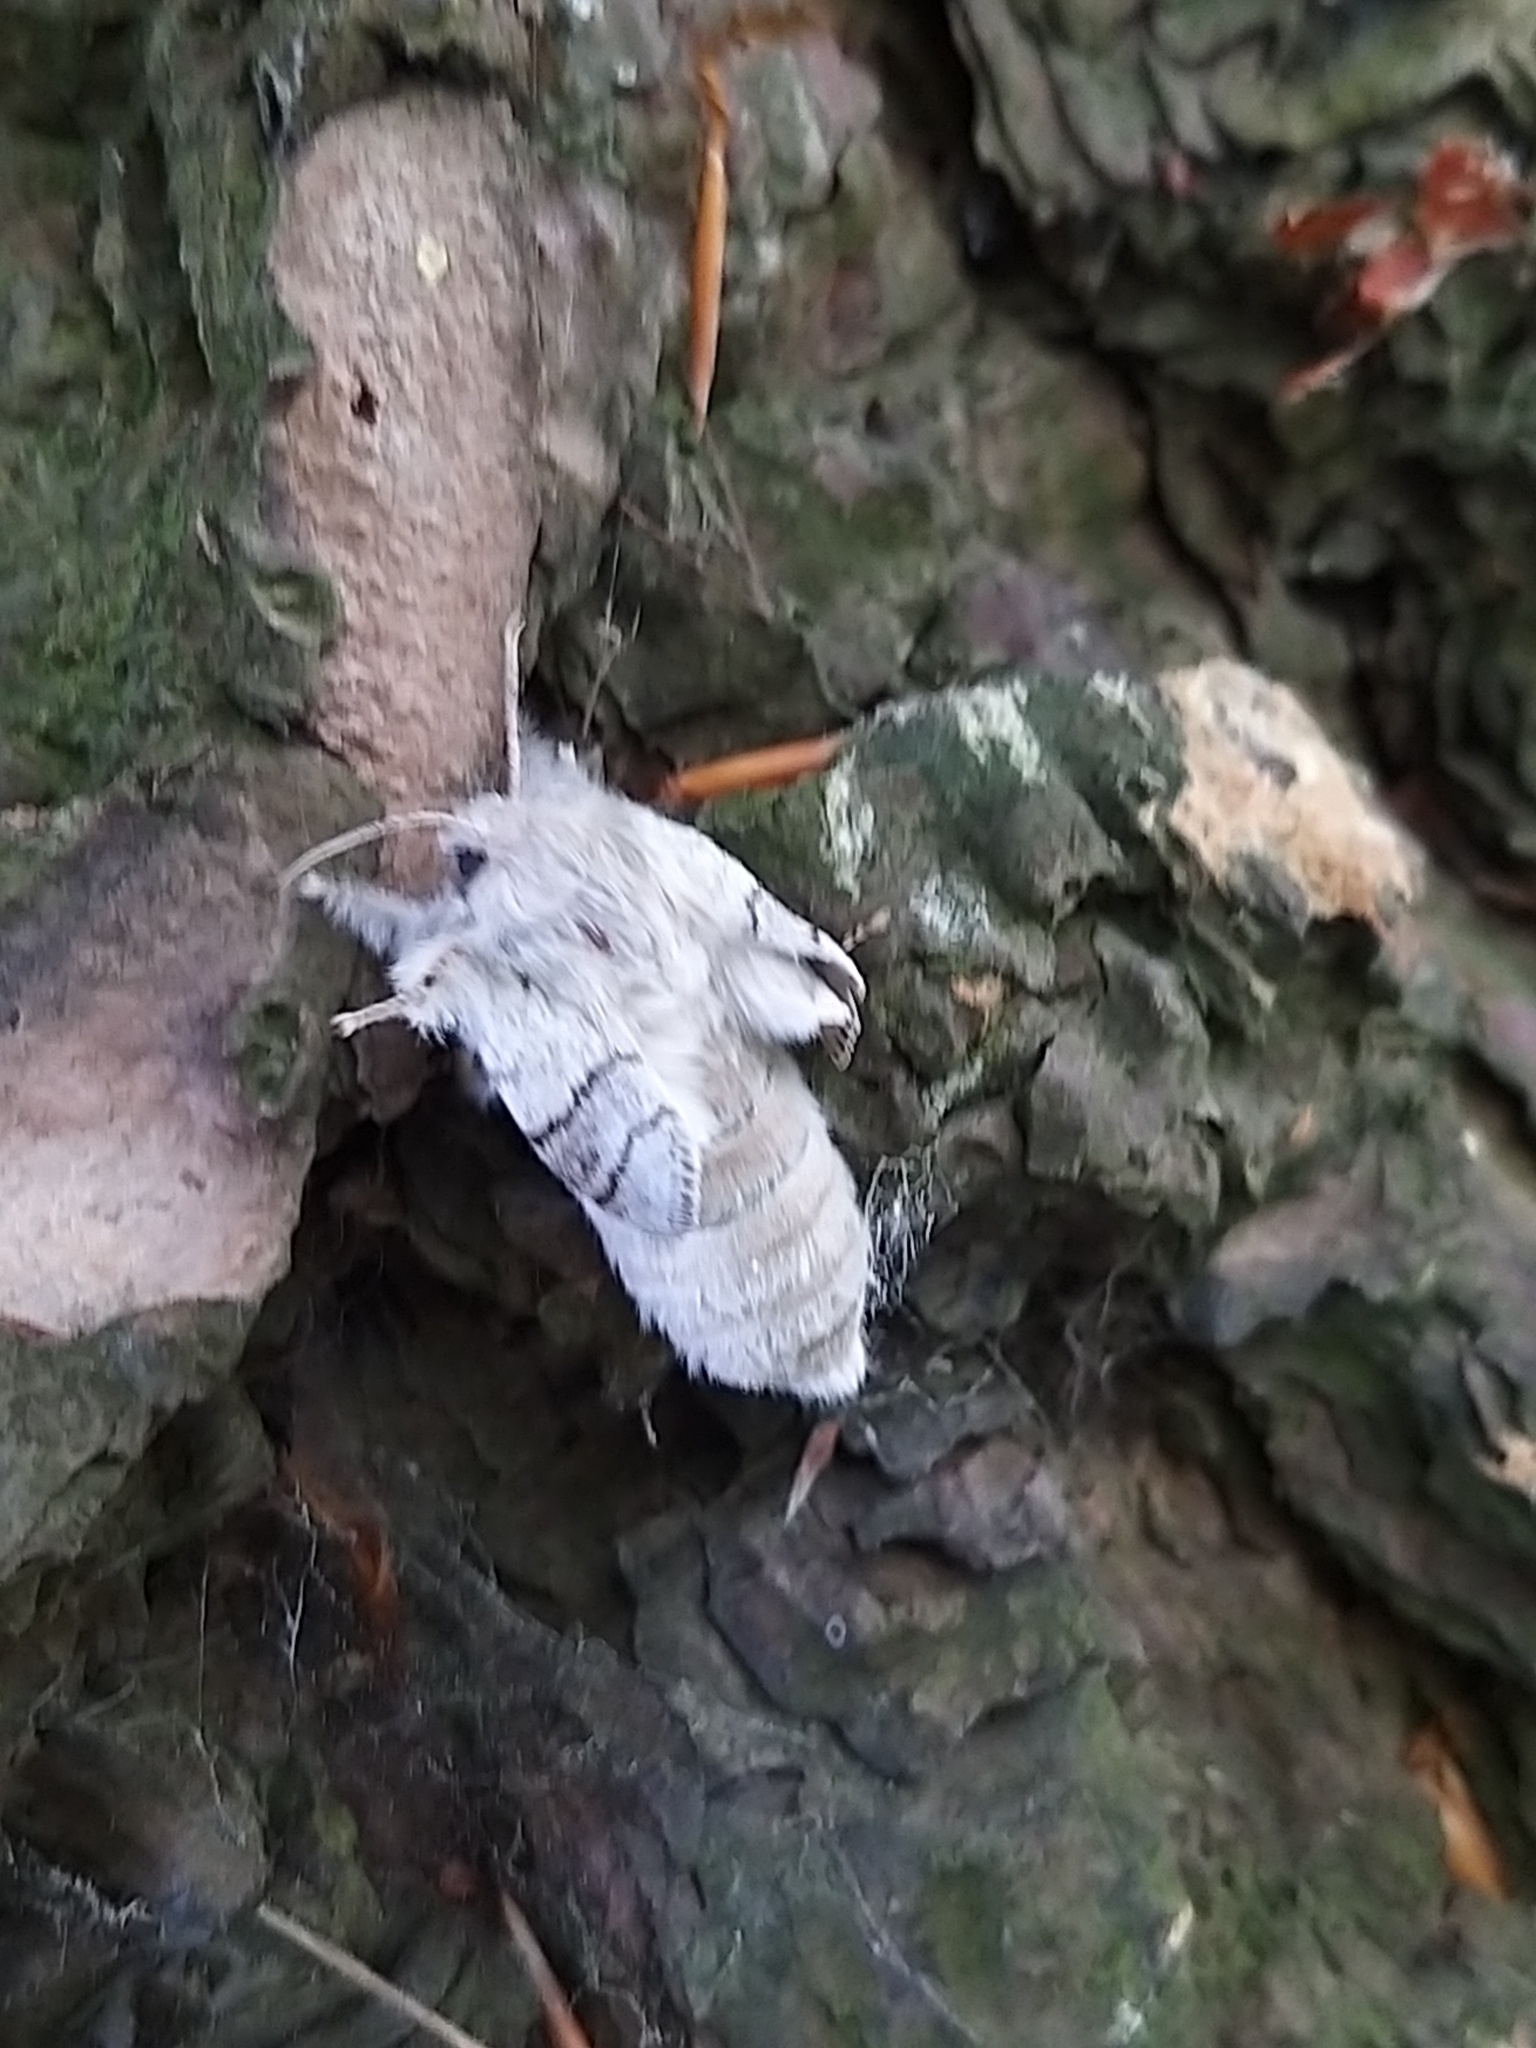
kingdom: Animalia
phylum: Arthropoda
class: Insecta
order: Lepidoptera
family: Erebidae
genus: Calliteara
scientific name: Calliteara pudibunda
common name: Pale tussock
